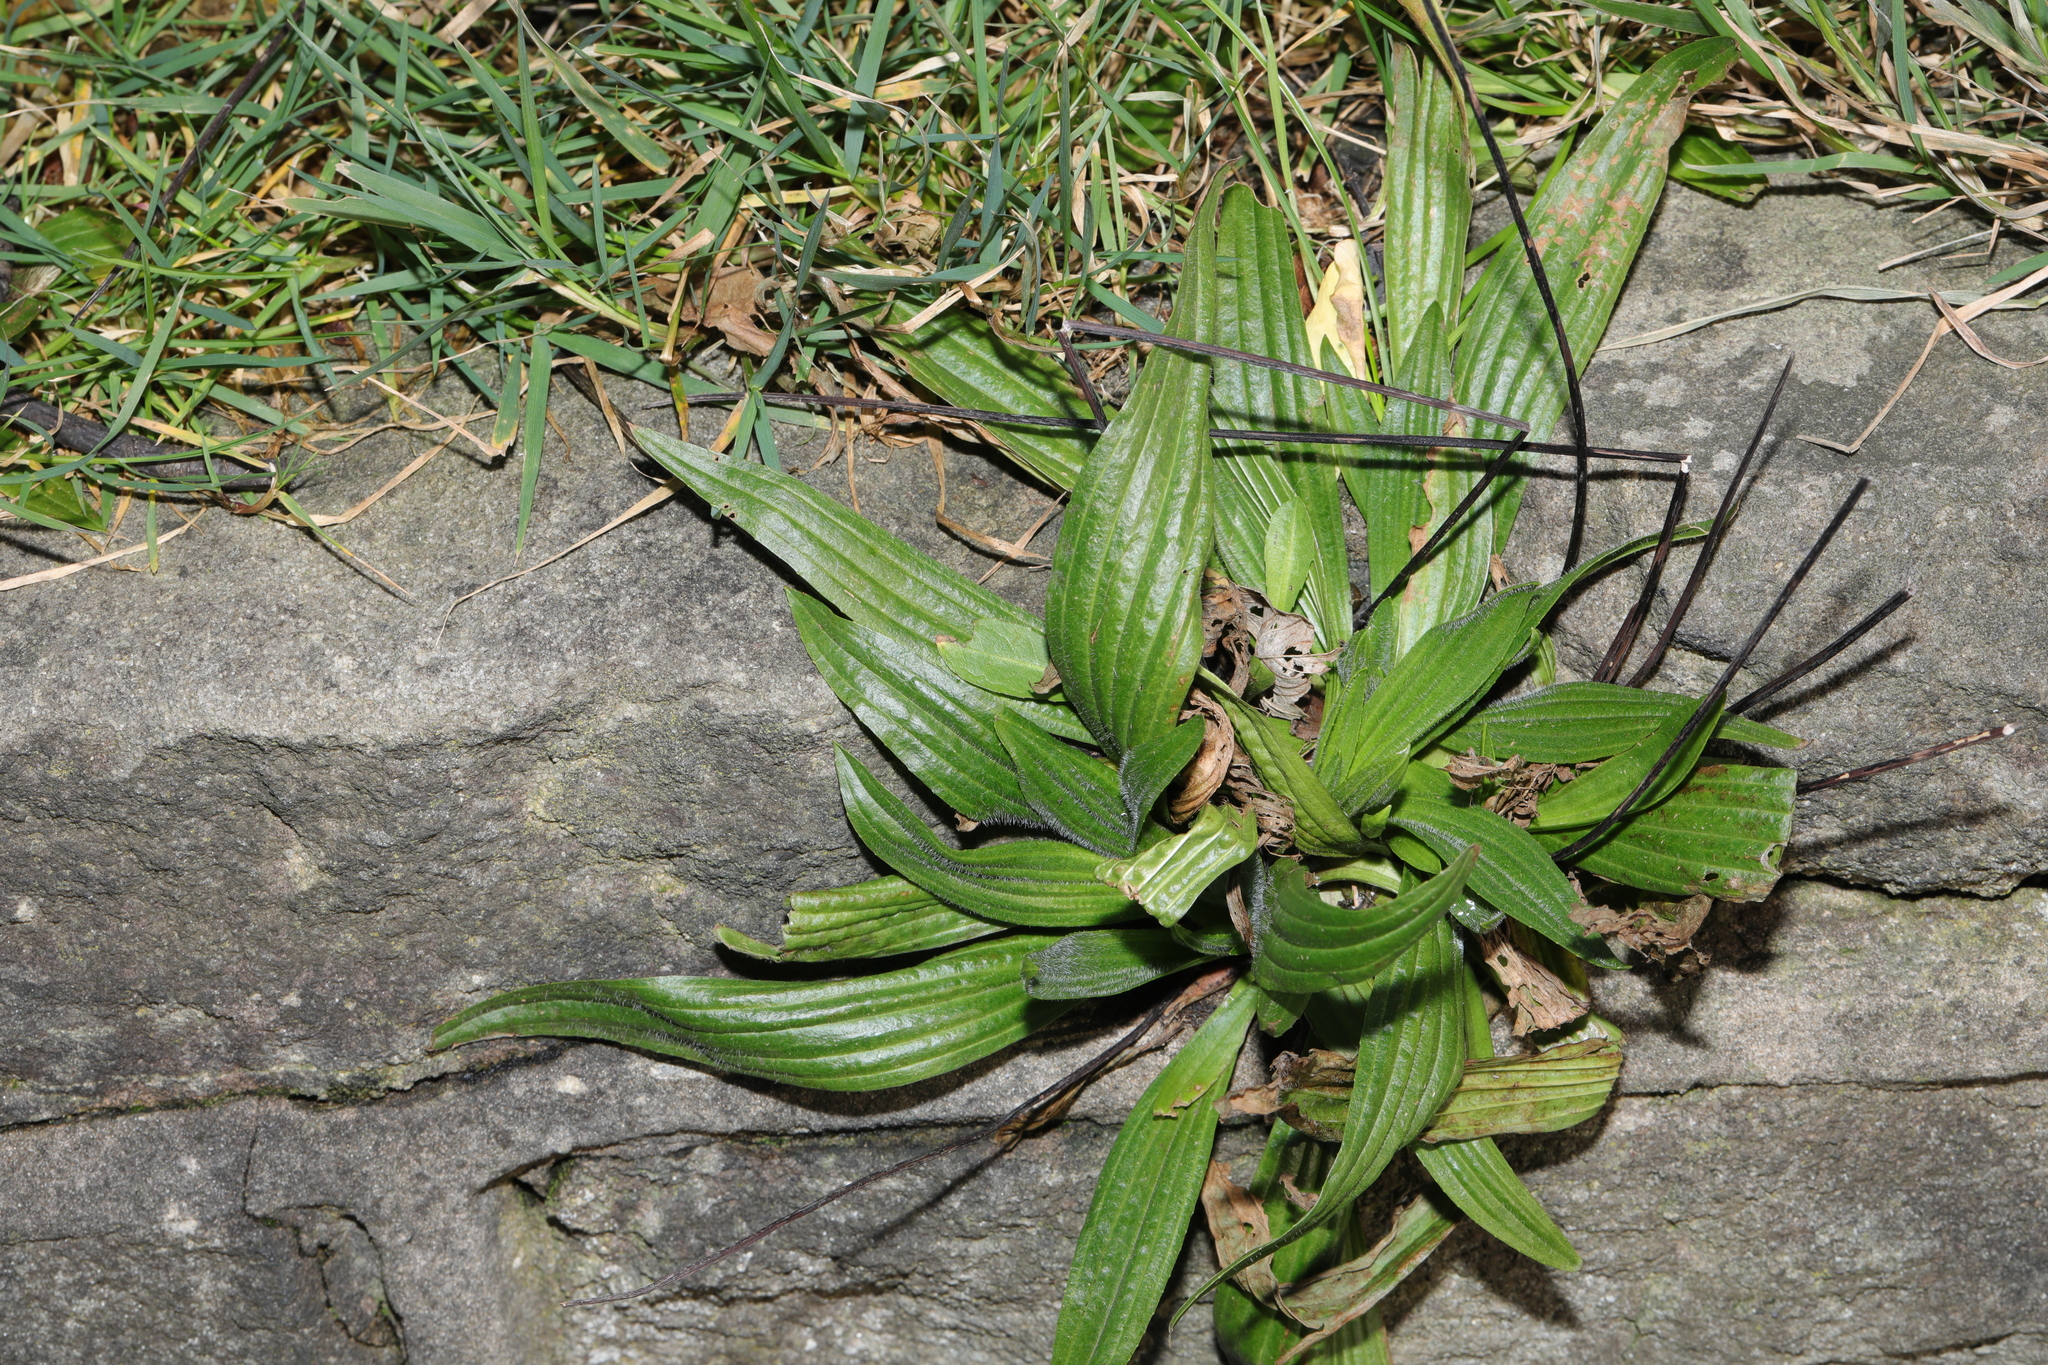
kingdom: Plantae
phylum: Tracheophyta
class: Magnoliopsida
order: Lamiales
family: Plantaginaceae
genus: Plantago
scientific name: Plantago lanceolata
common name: Ribwort plantain
